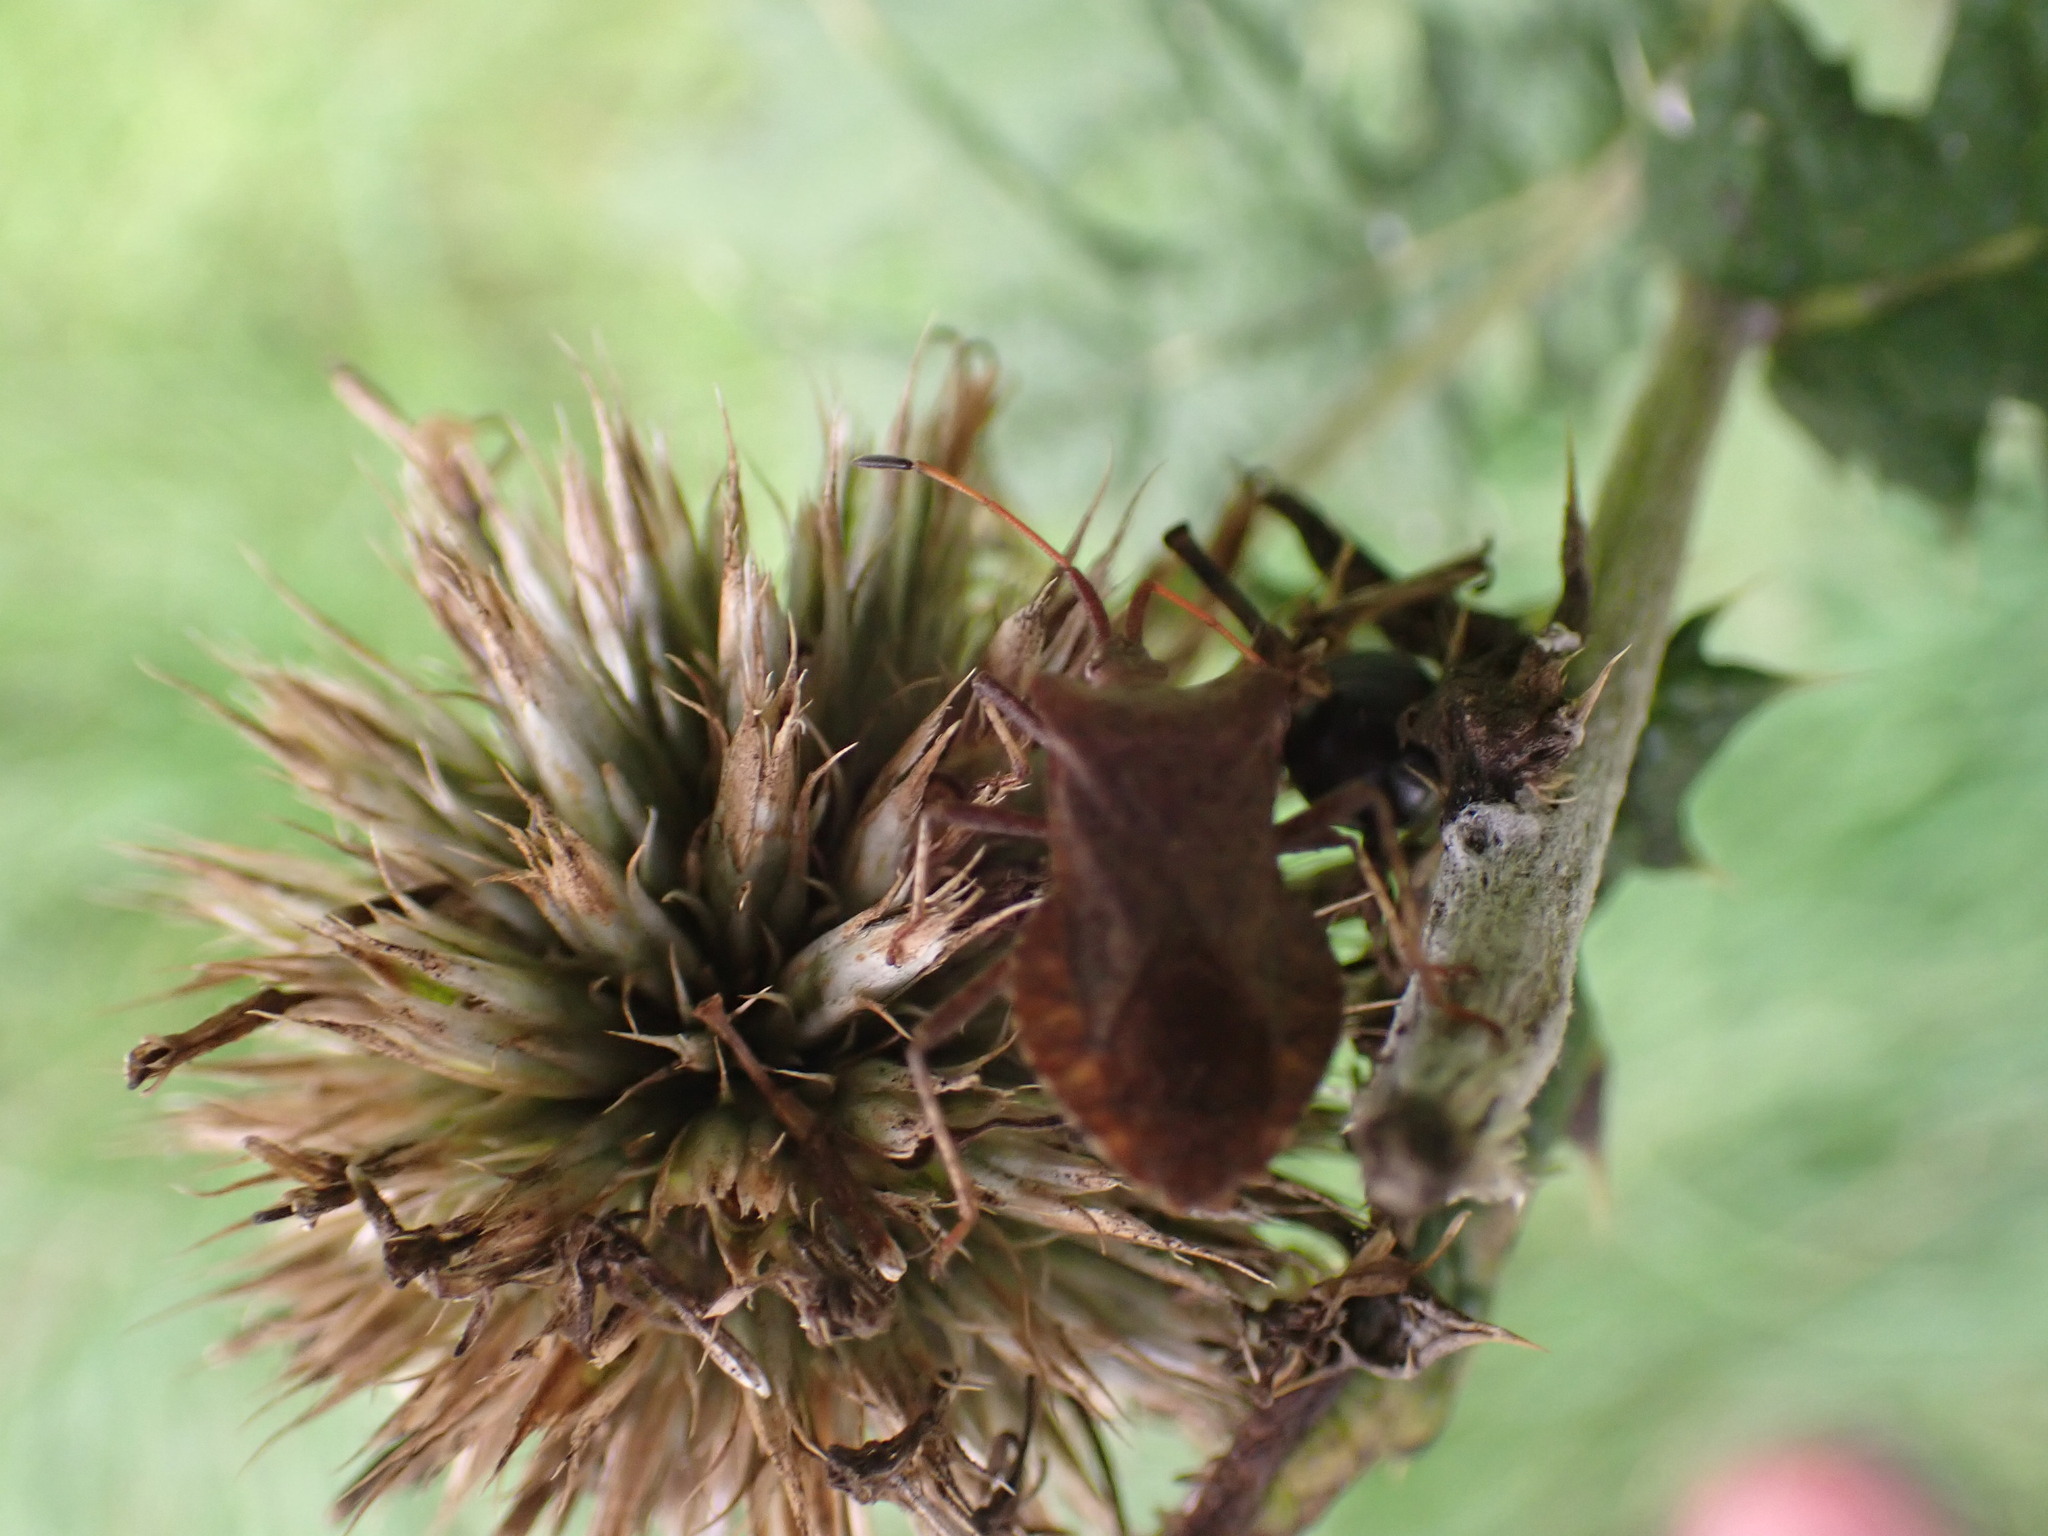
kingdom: Animalia
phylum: Arthropoda
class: Insecta
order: Hemiptera
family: Coreidae
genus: Coreus
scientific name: Coreus marginatus
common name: Dock bug
